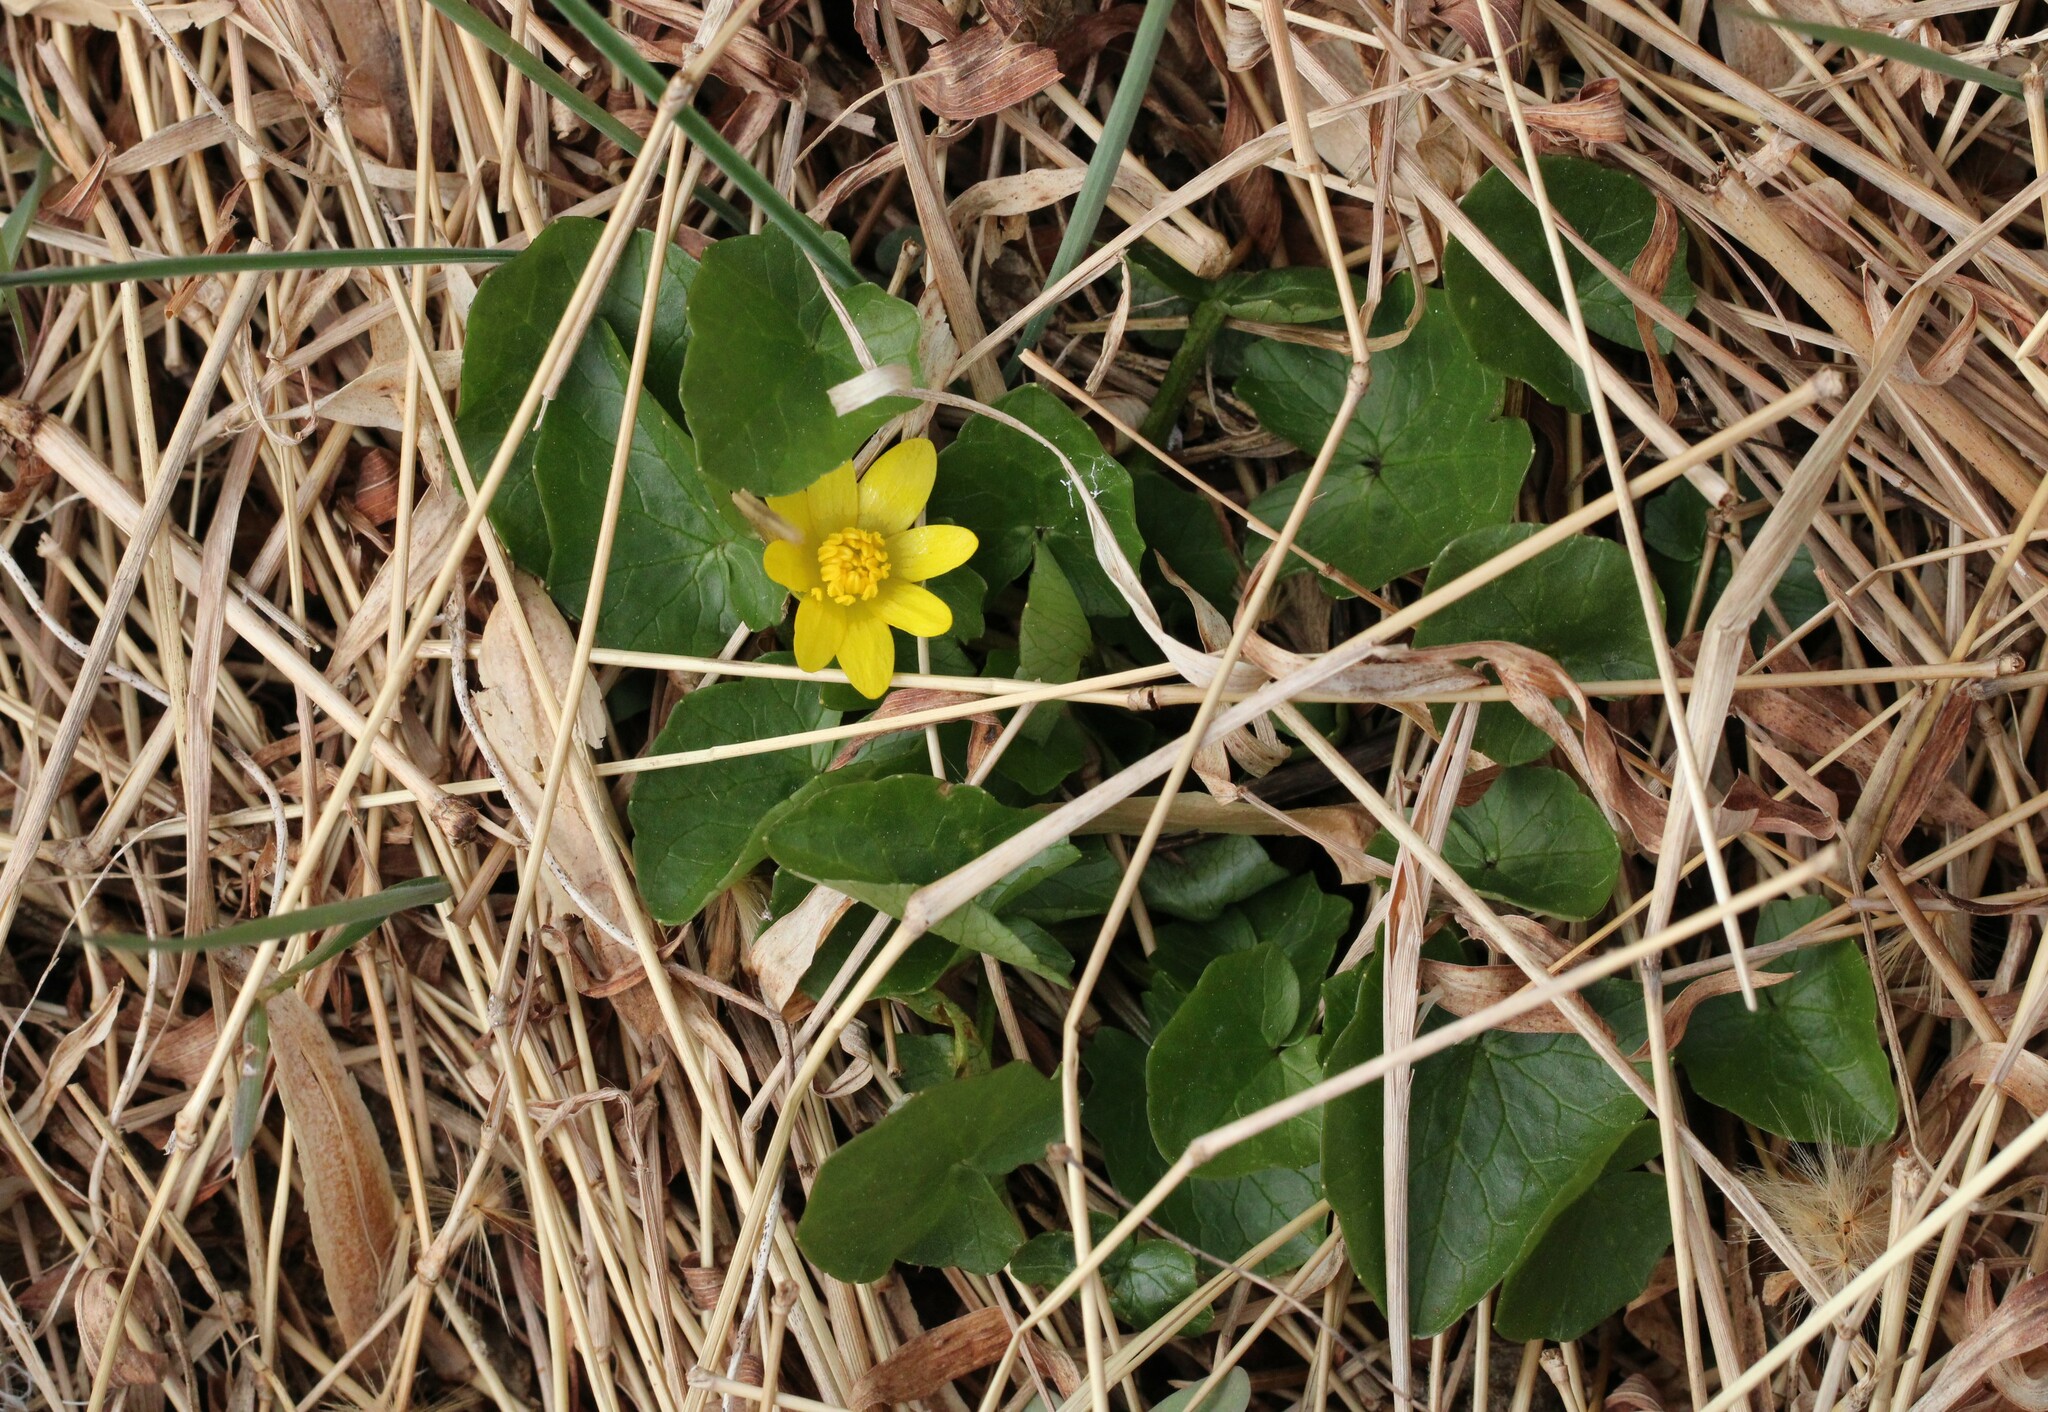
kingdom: Plantae
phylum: Tracheophyta
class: Magnoliopsida
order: Ranunculales
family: Ranunculaceae
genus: Ficaria
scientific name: Ficaria verna
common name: Lesser celandine
